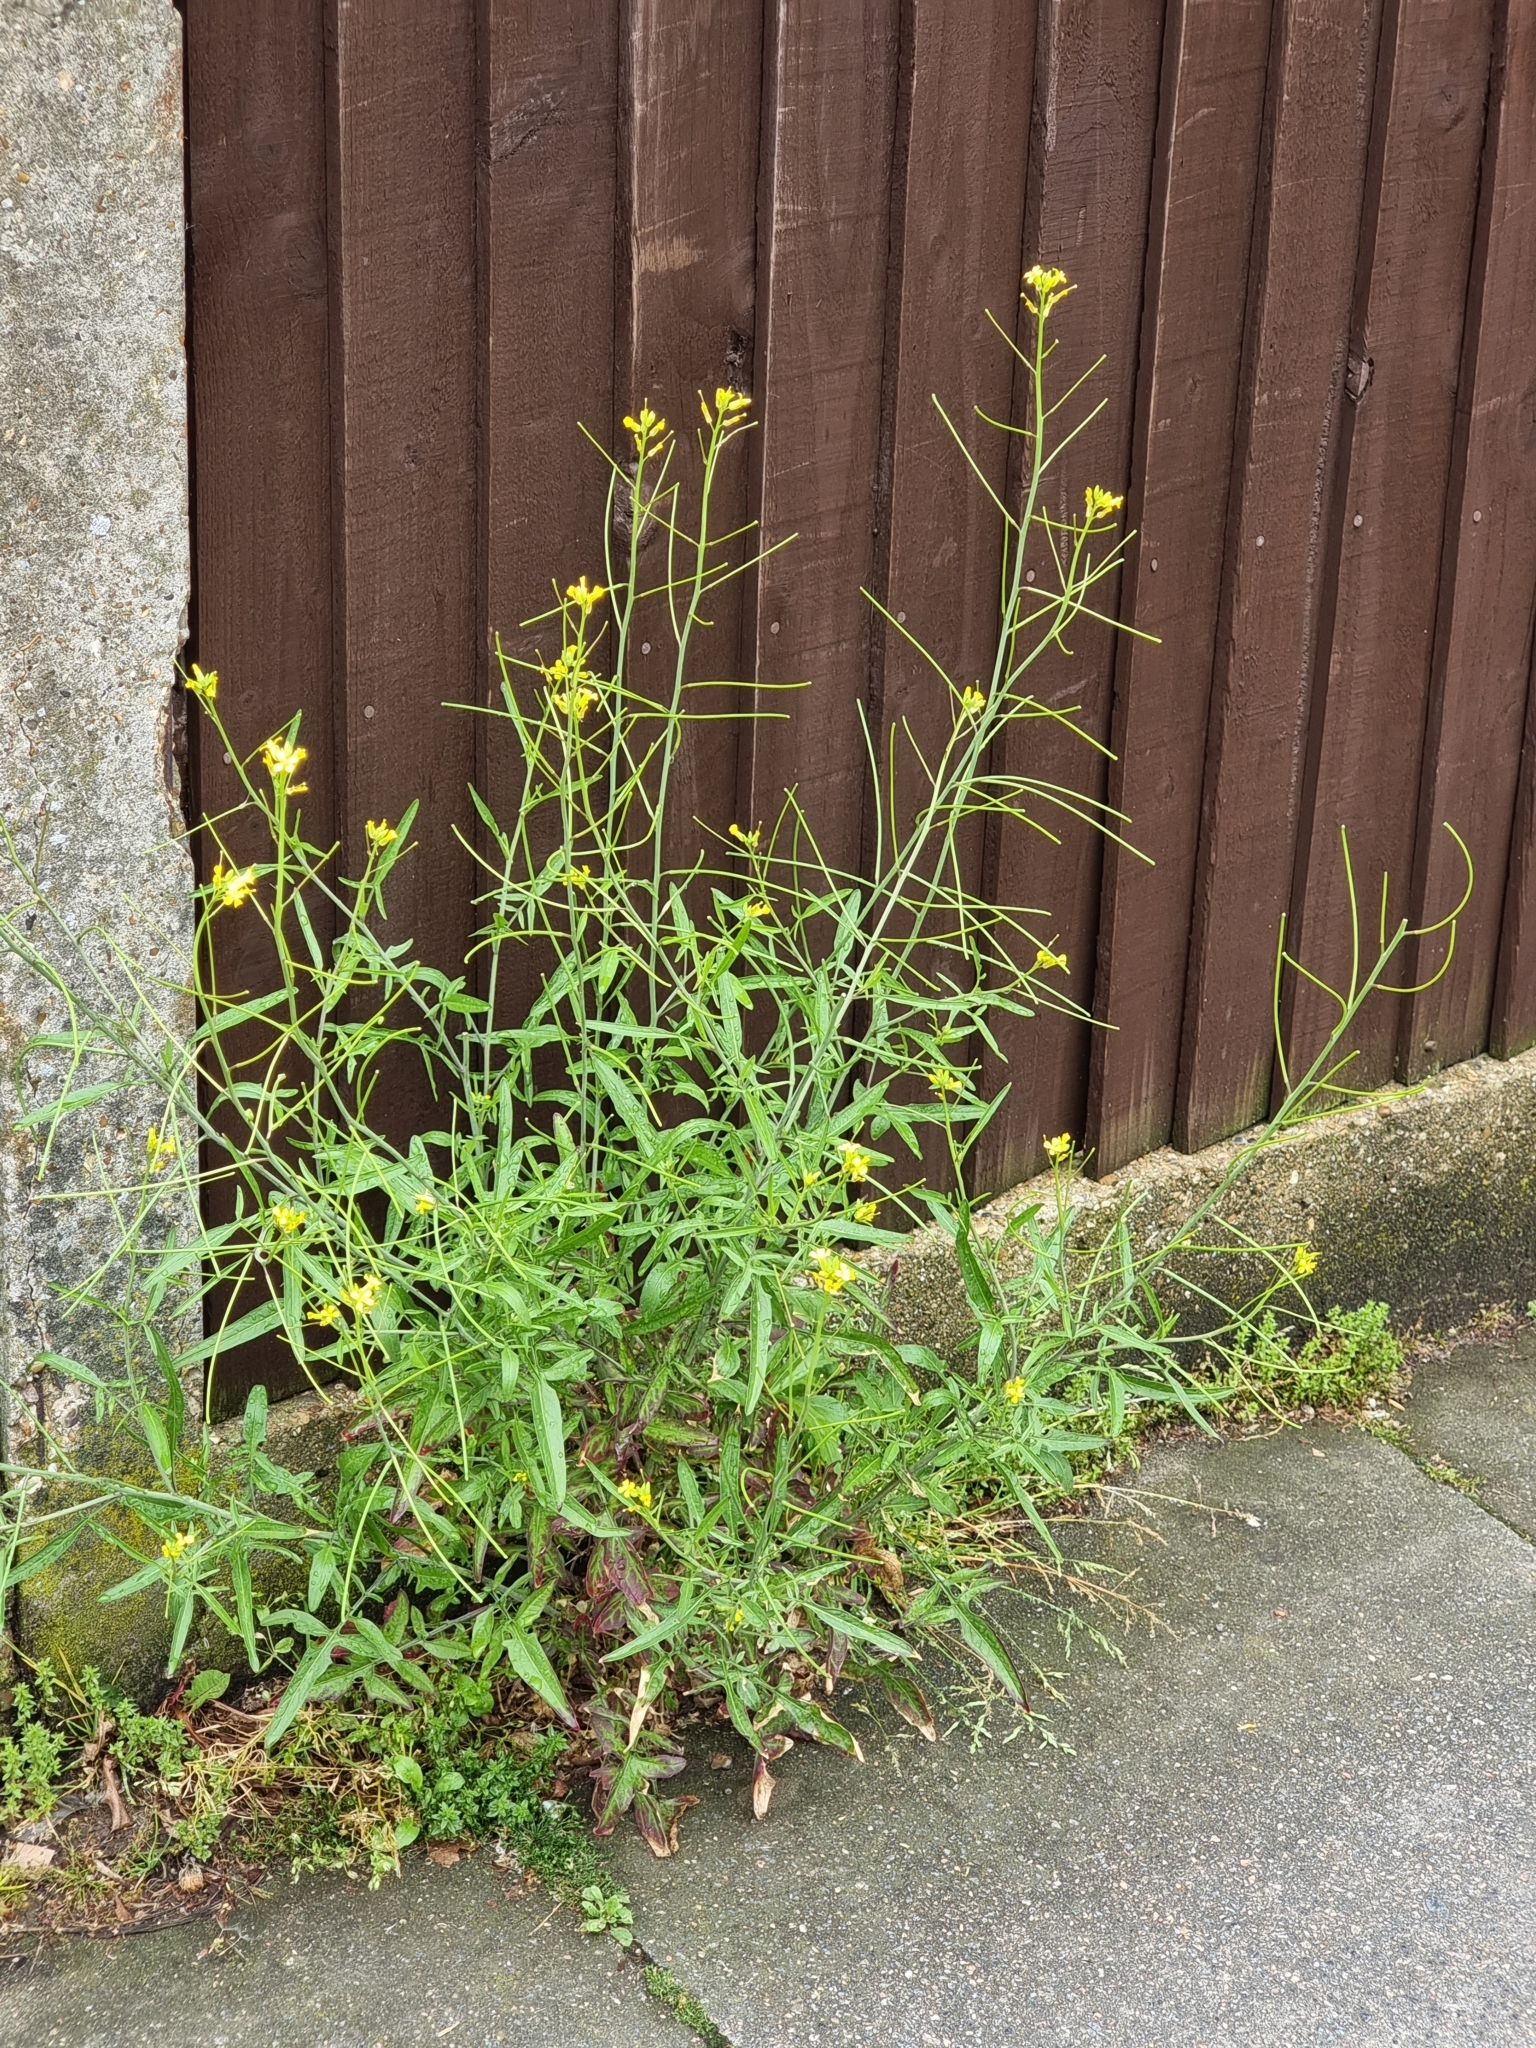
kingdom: Plantae
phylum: Tracheophyta
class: Magnoliopsida
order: Brassicales
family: Brassicaceae
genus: Sisymbrium
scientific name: Sisymbrium orientale
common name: Eastern rocket
